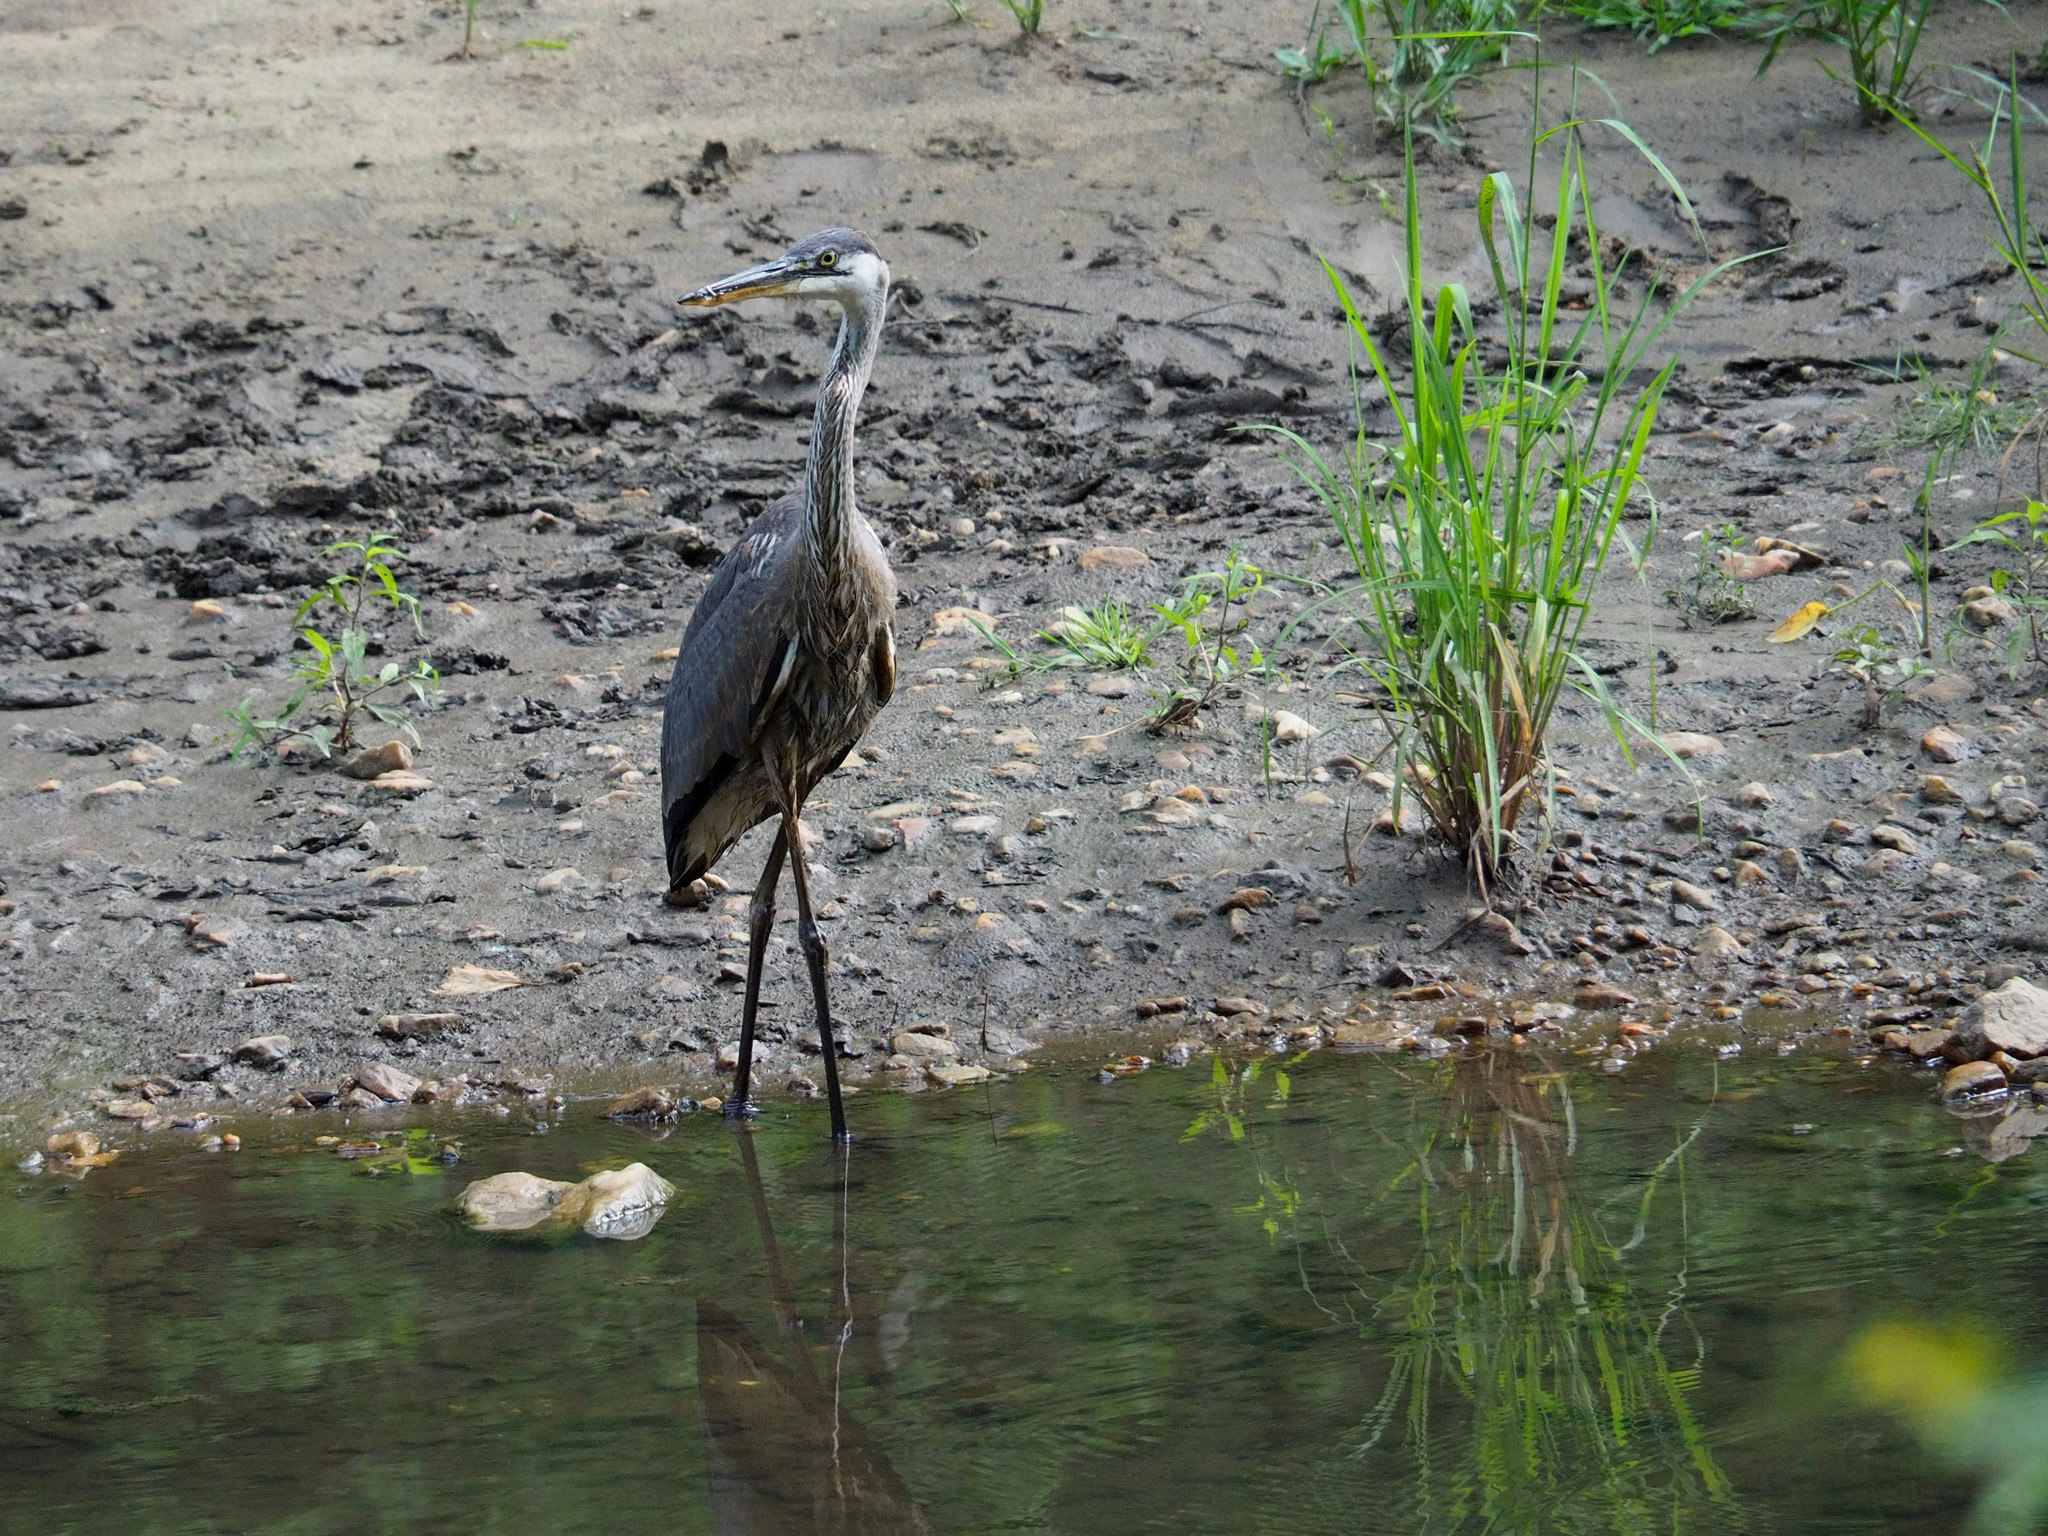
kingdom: Animalia
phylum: Chordata
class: Aves
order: Pelecaniformes
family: Ardeidae
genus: Ardea
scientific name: Ardea herodias
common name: Great blue heron
